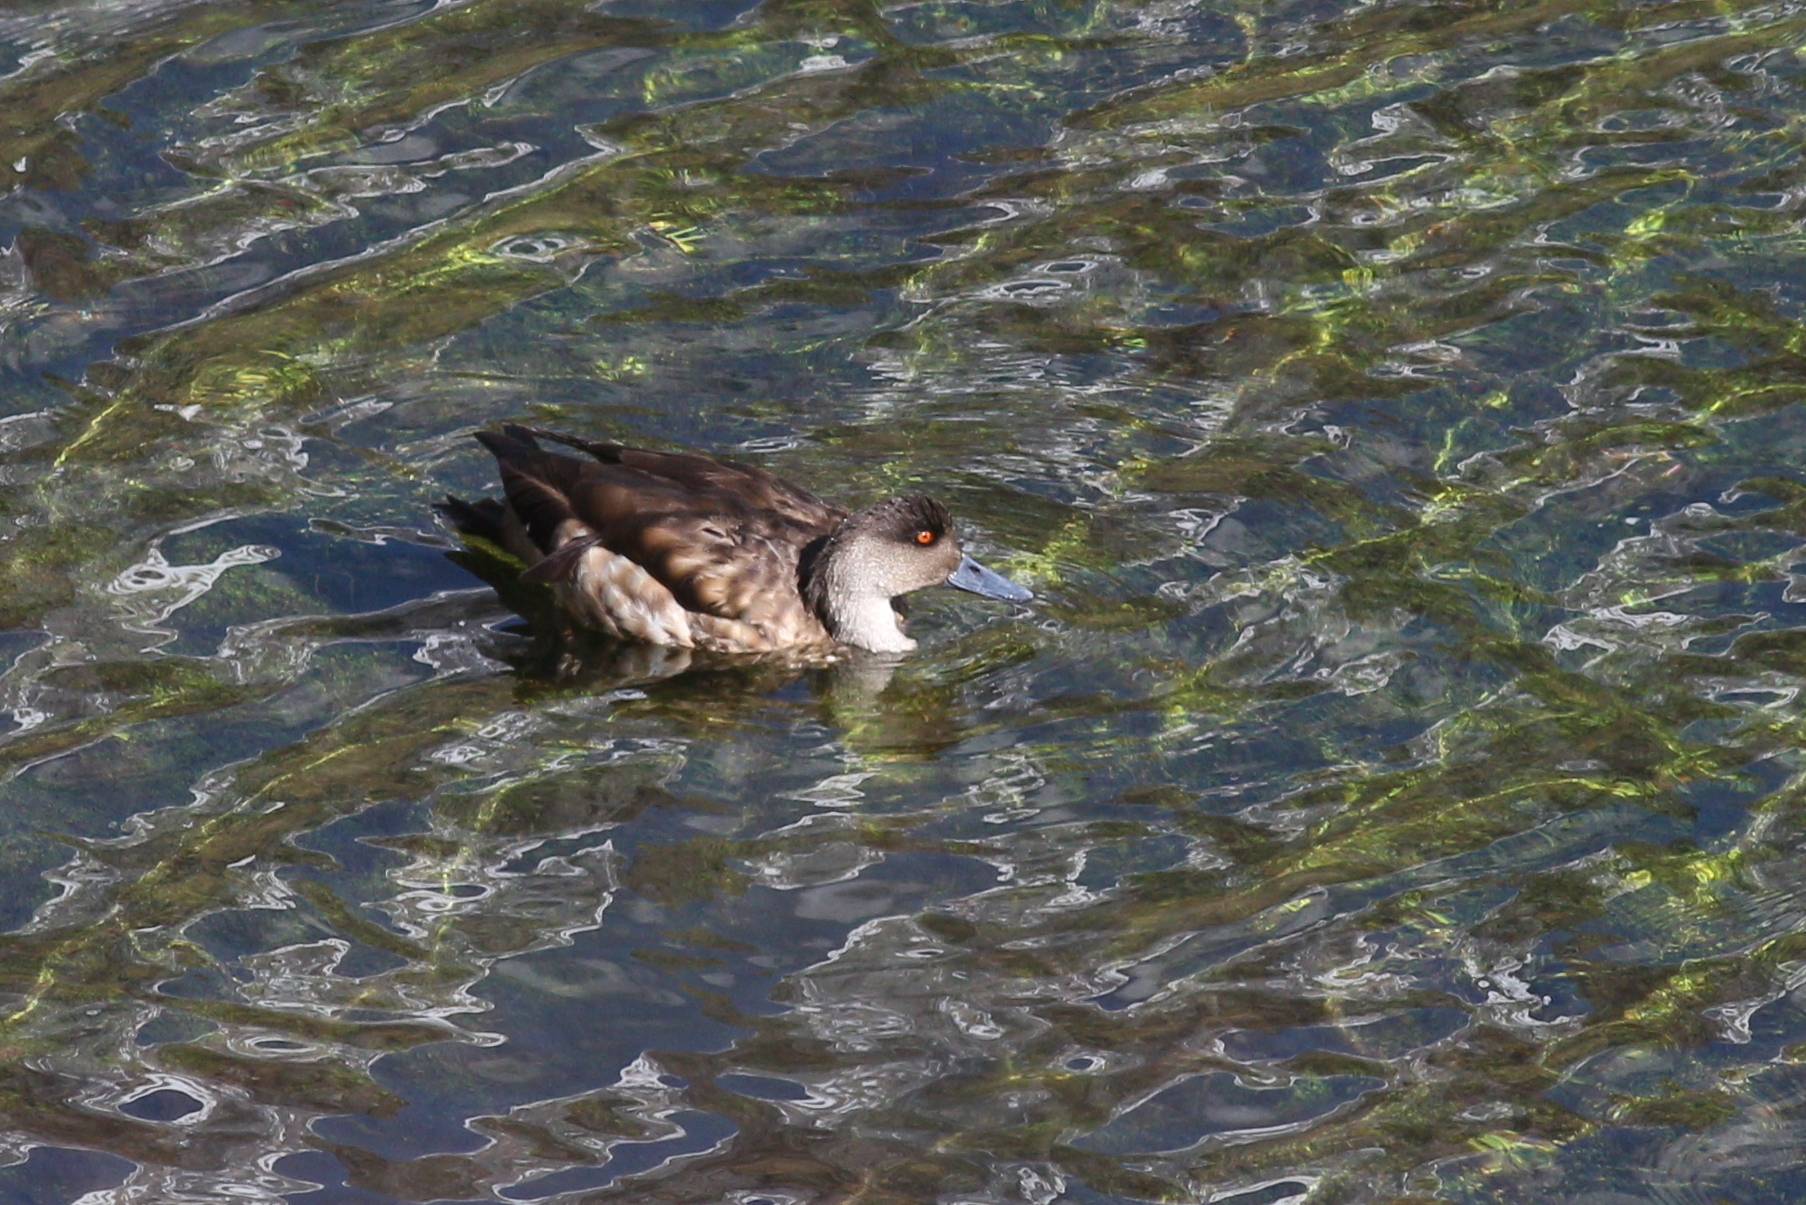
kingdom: Animalia
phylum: Chordata
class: Aves
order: Anseriformes
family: Anatidae
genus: Lophonetta
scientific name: Lophonetta specularioides
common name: Crested duck
